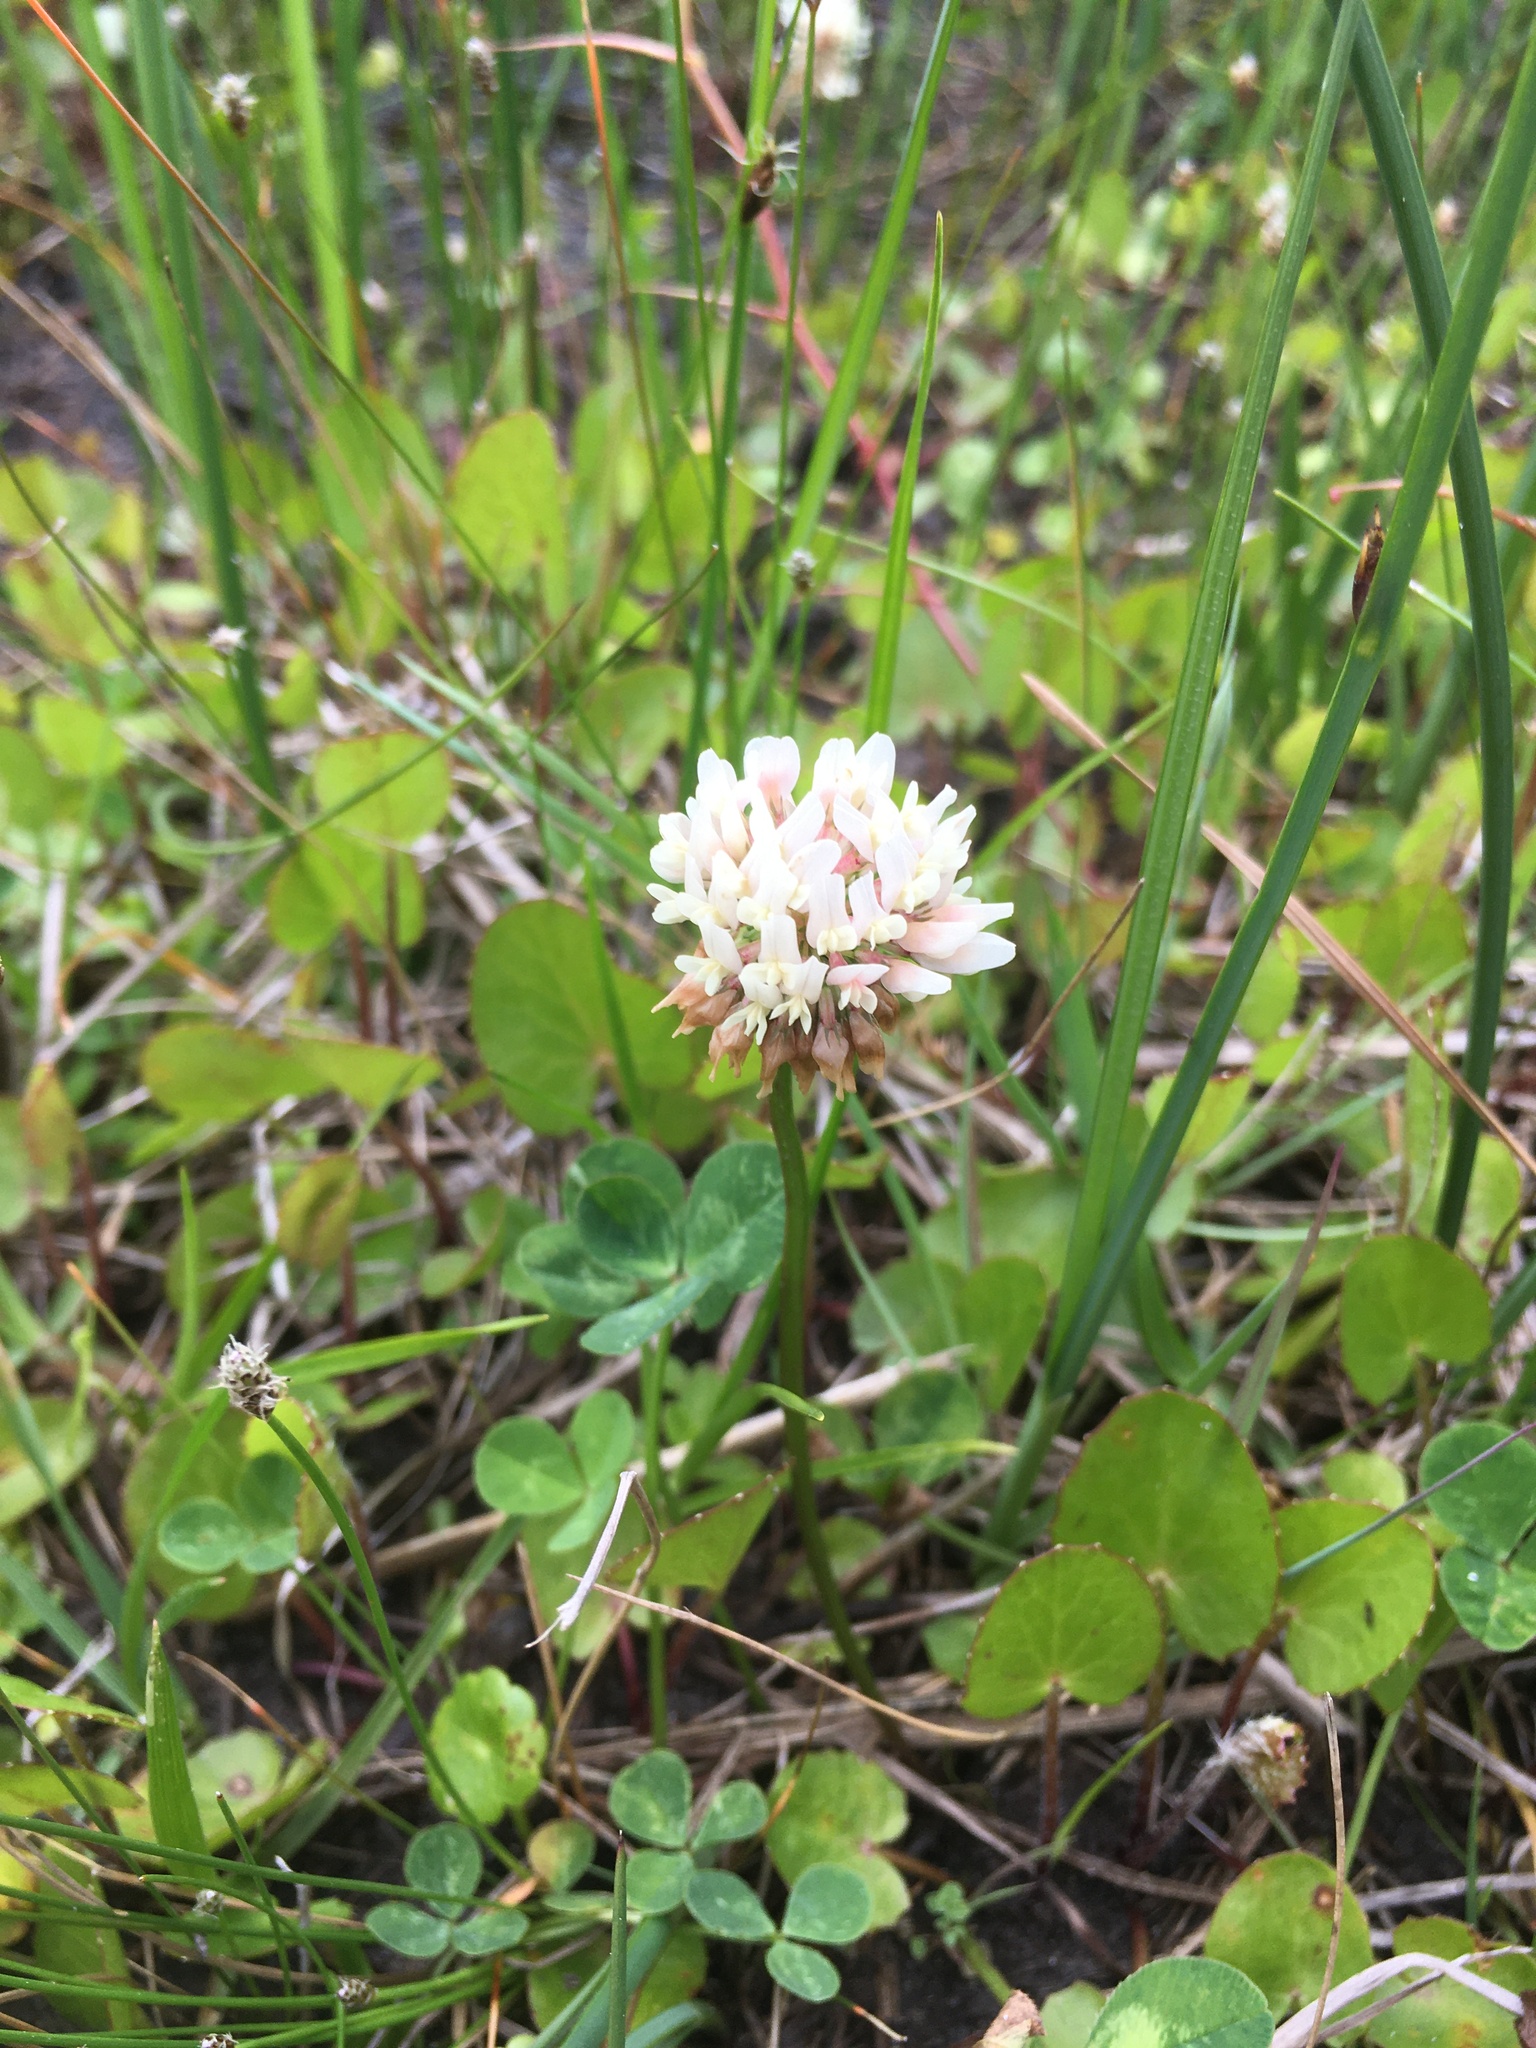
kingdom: Plantae
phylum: Tracheophyta
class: Magnoliopsida
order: Fabales
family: Fabaceae
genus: Trifolium
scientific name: Trifolium repens
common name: White clover
